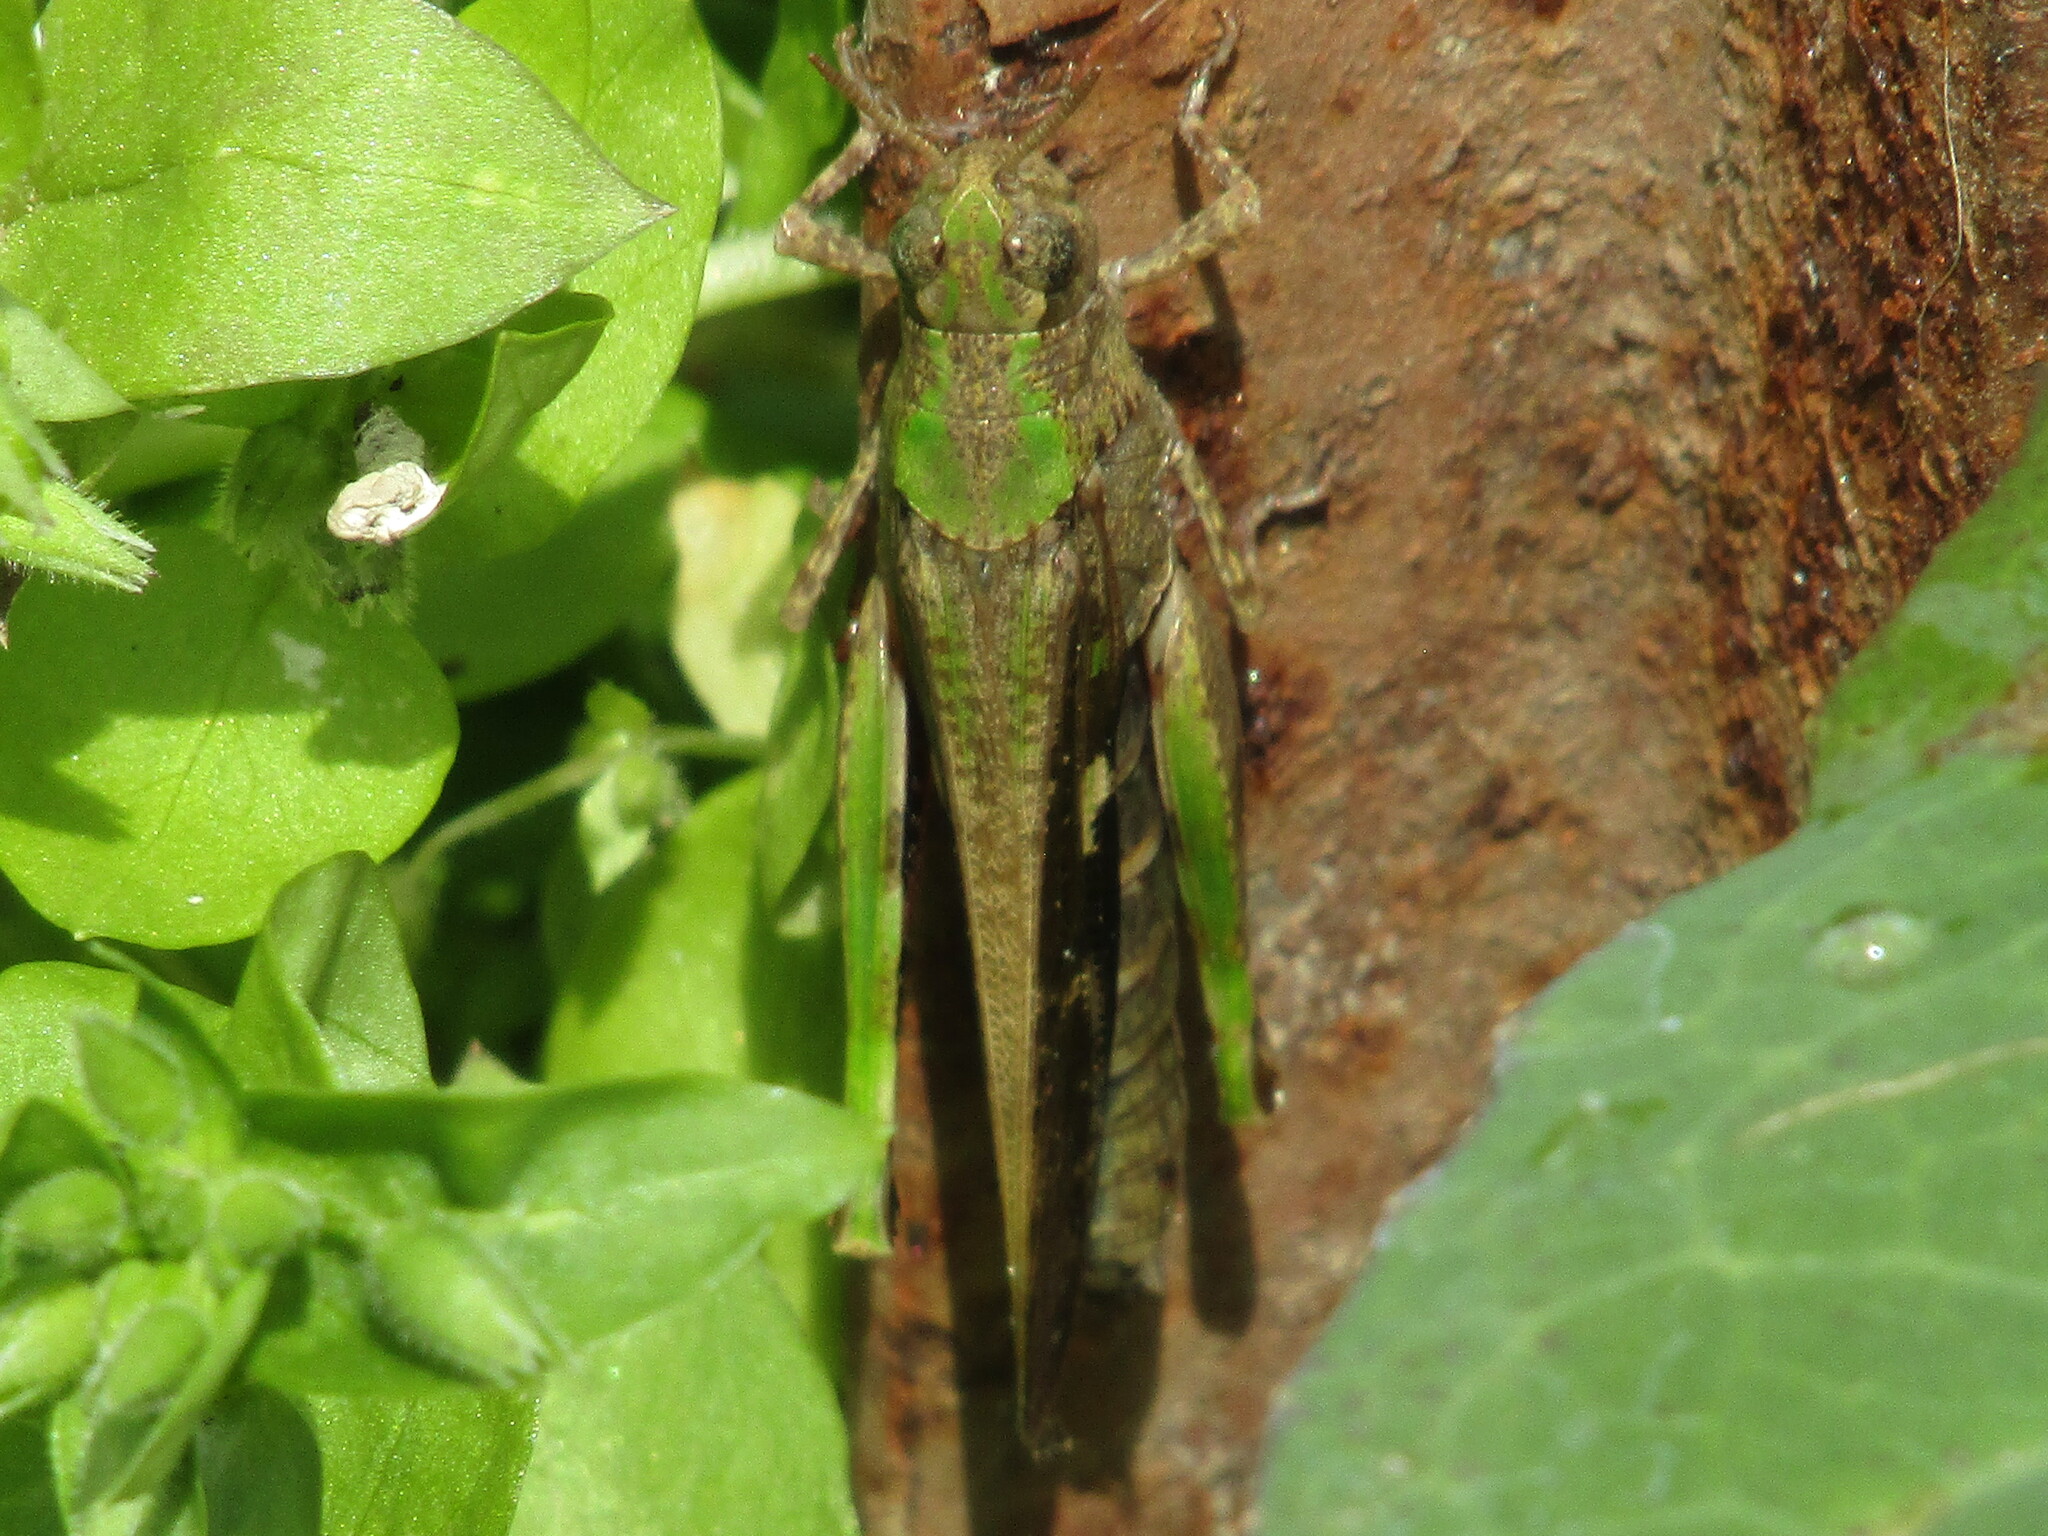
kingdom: Animalia
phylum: Arthropoda
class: Insecta
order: Orthoptera
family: Acrididae
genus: Aiolopus
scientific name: Aiolopus strepens
